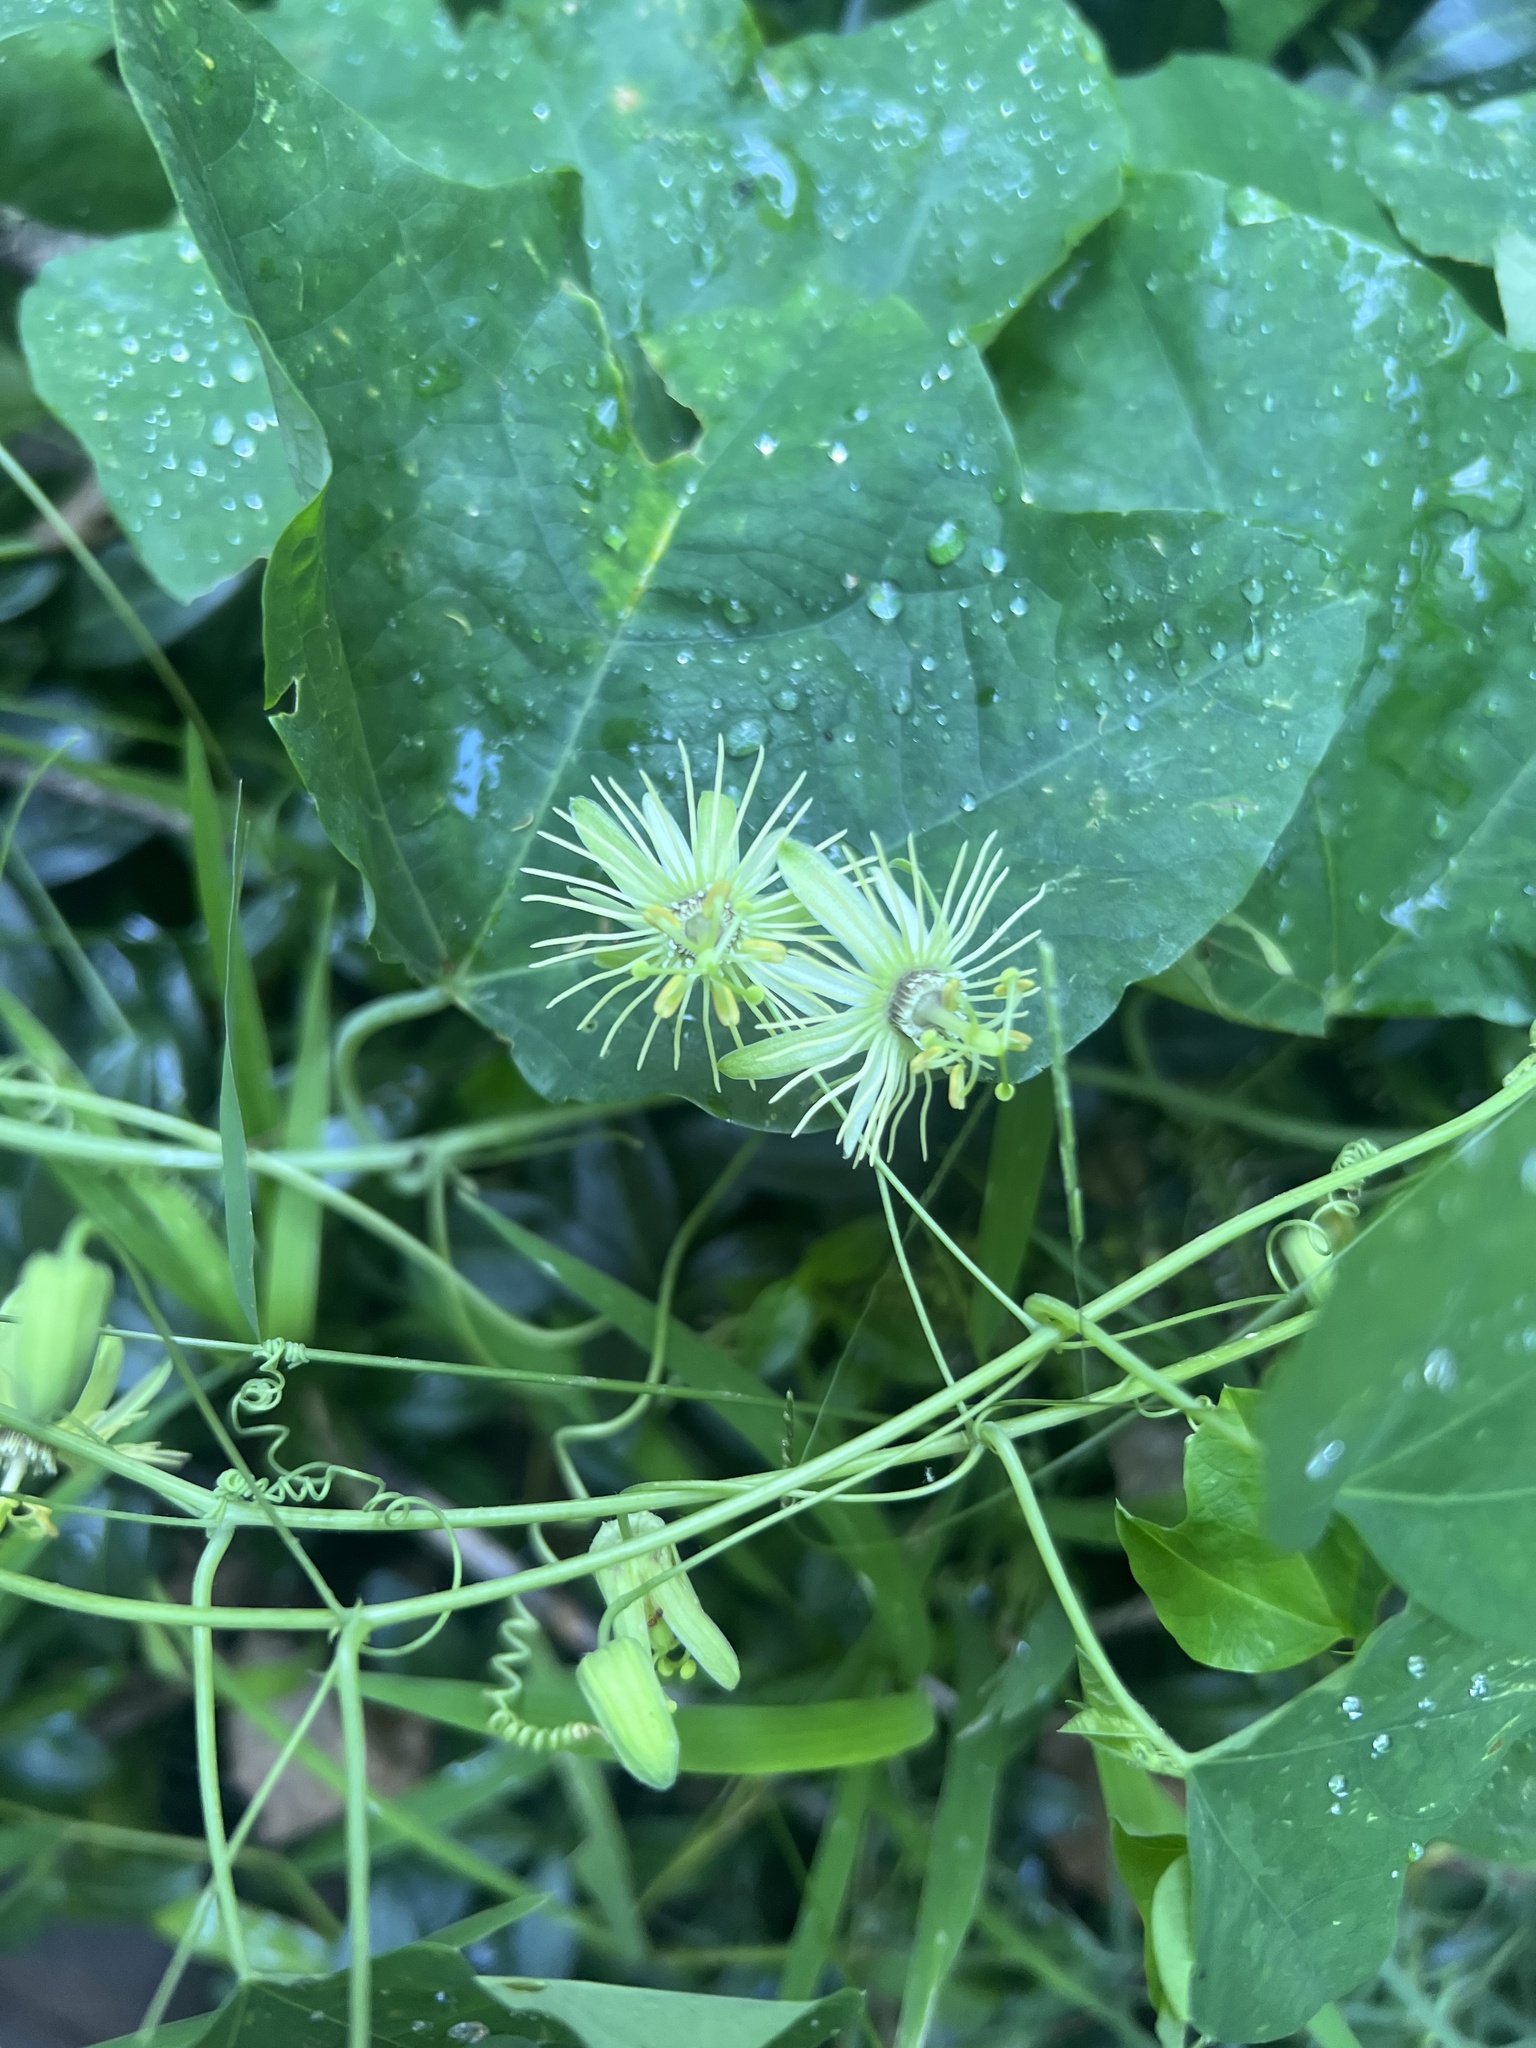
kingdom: Plantae
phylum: Tracheophyta
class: Magnoliopsida
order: Malpighiales
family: Passifloraceae
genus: Passiflora
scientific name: Passiflora lutea
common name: Yellow passionflower
